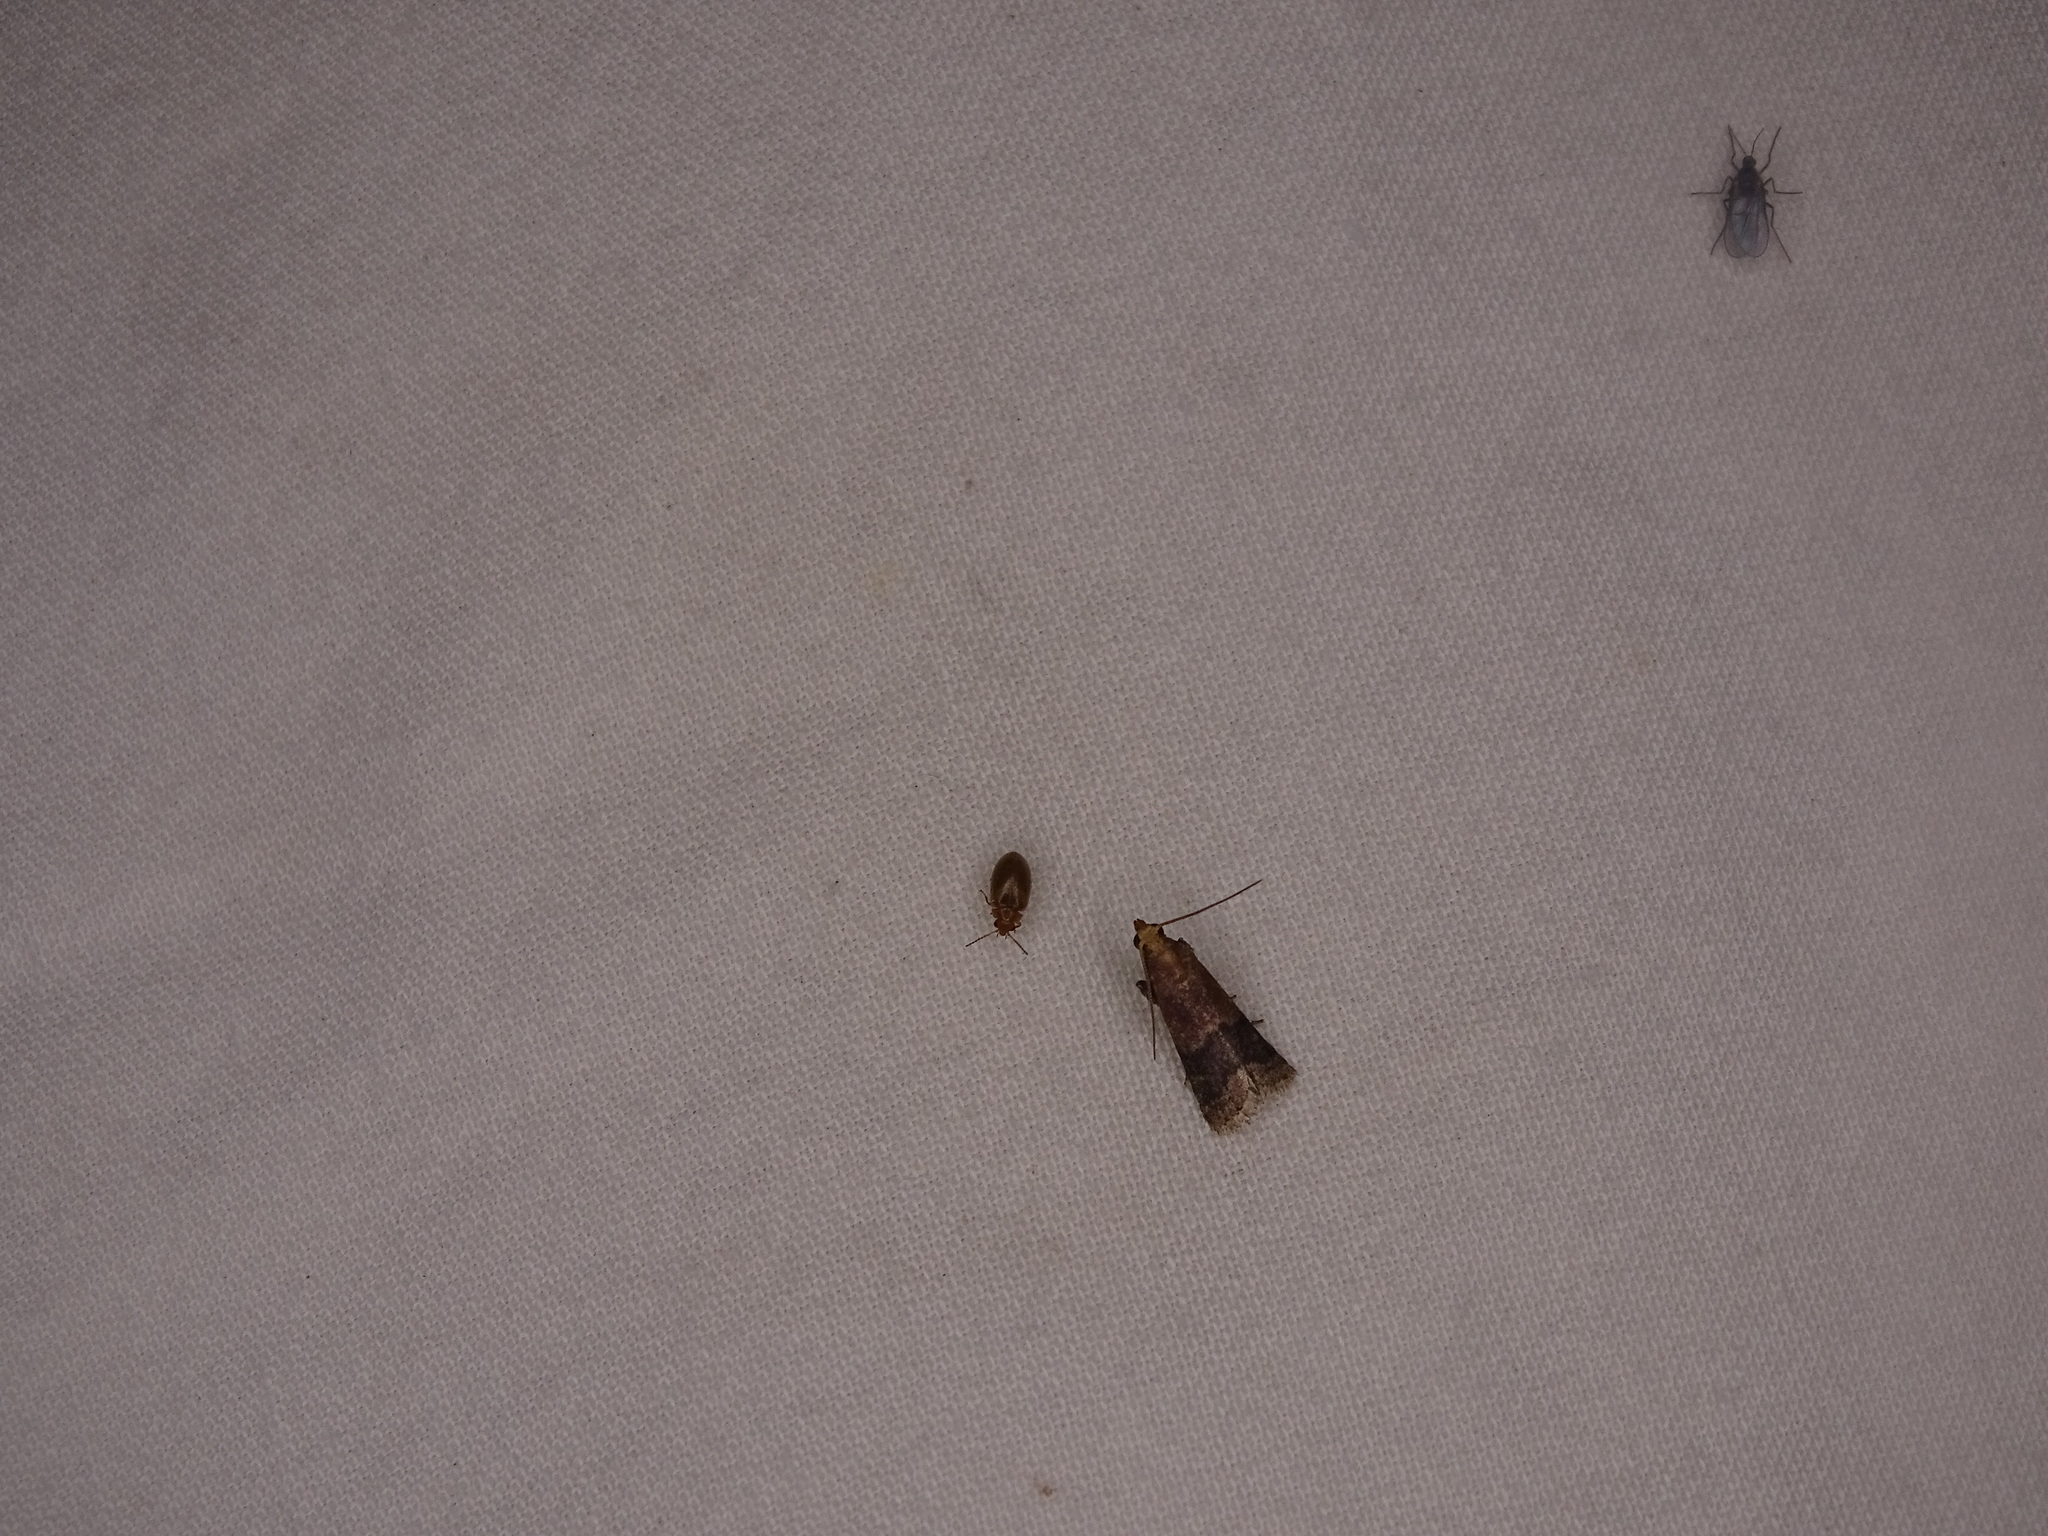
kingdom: Animalia
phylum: Arthropoda
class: Insecta
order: Lepidoptera
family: Pyralidae
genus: Eulogia
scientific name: Eulogia ochrifrontella
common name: Broad-banded eulogia moth
